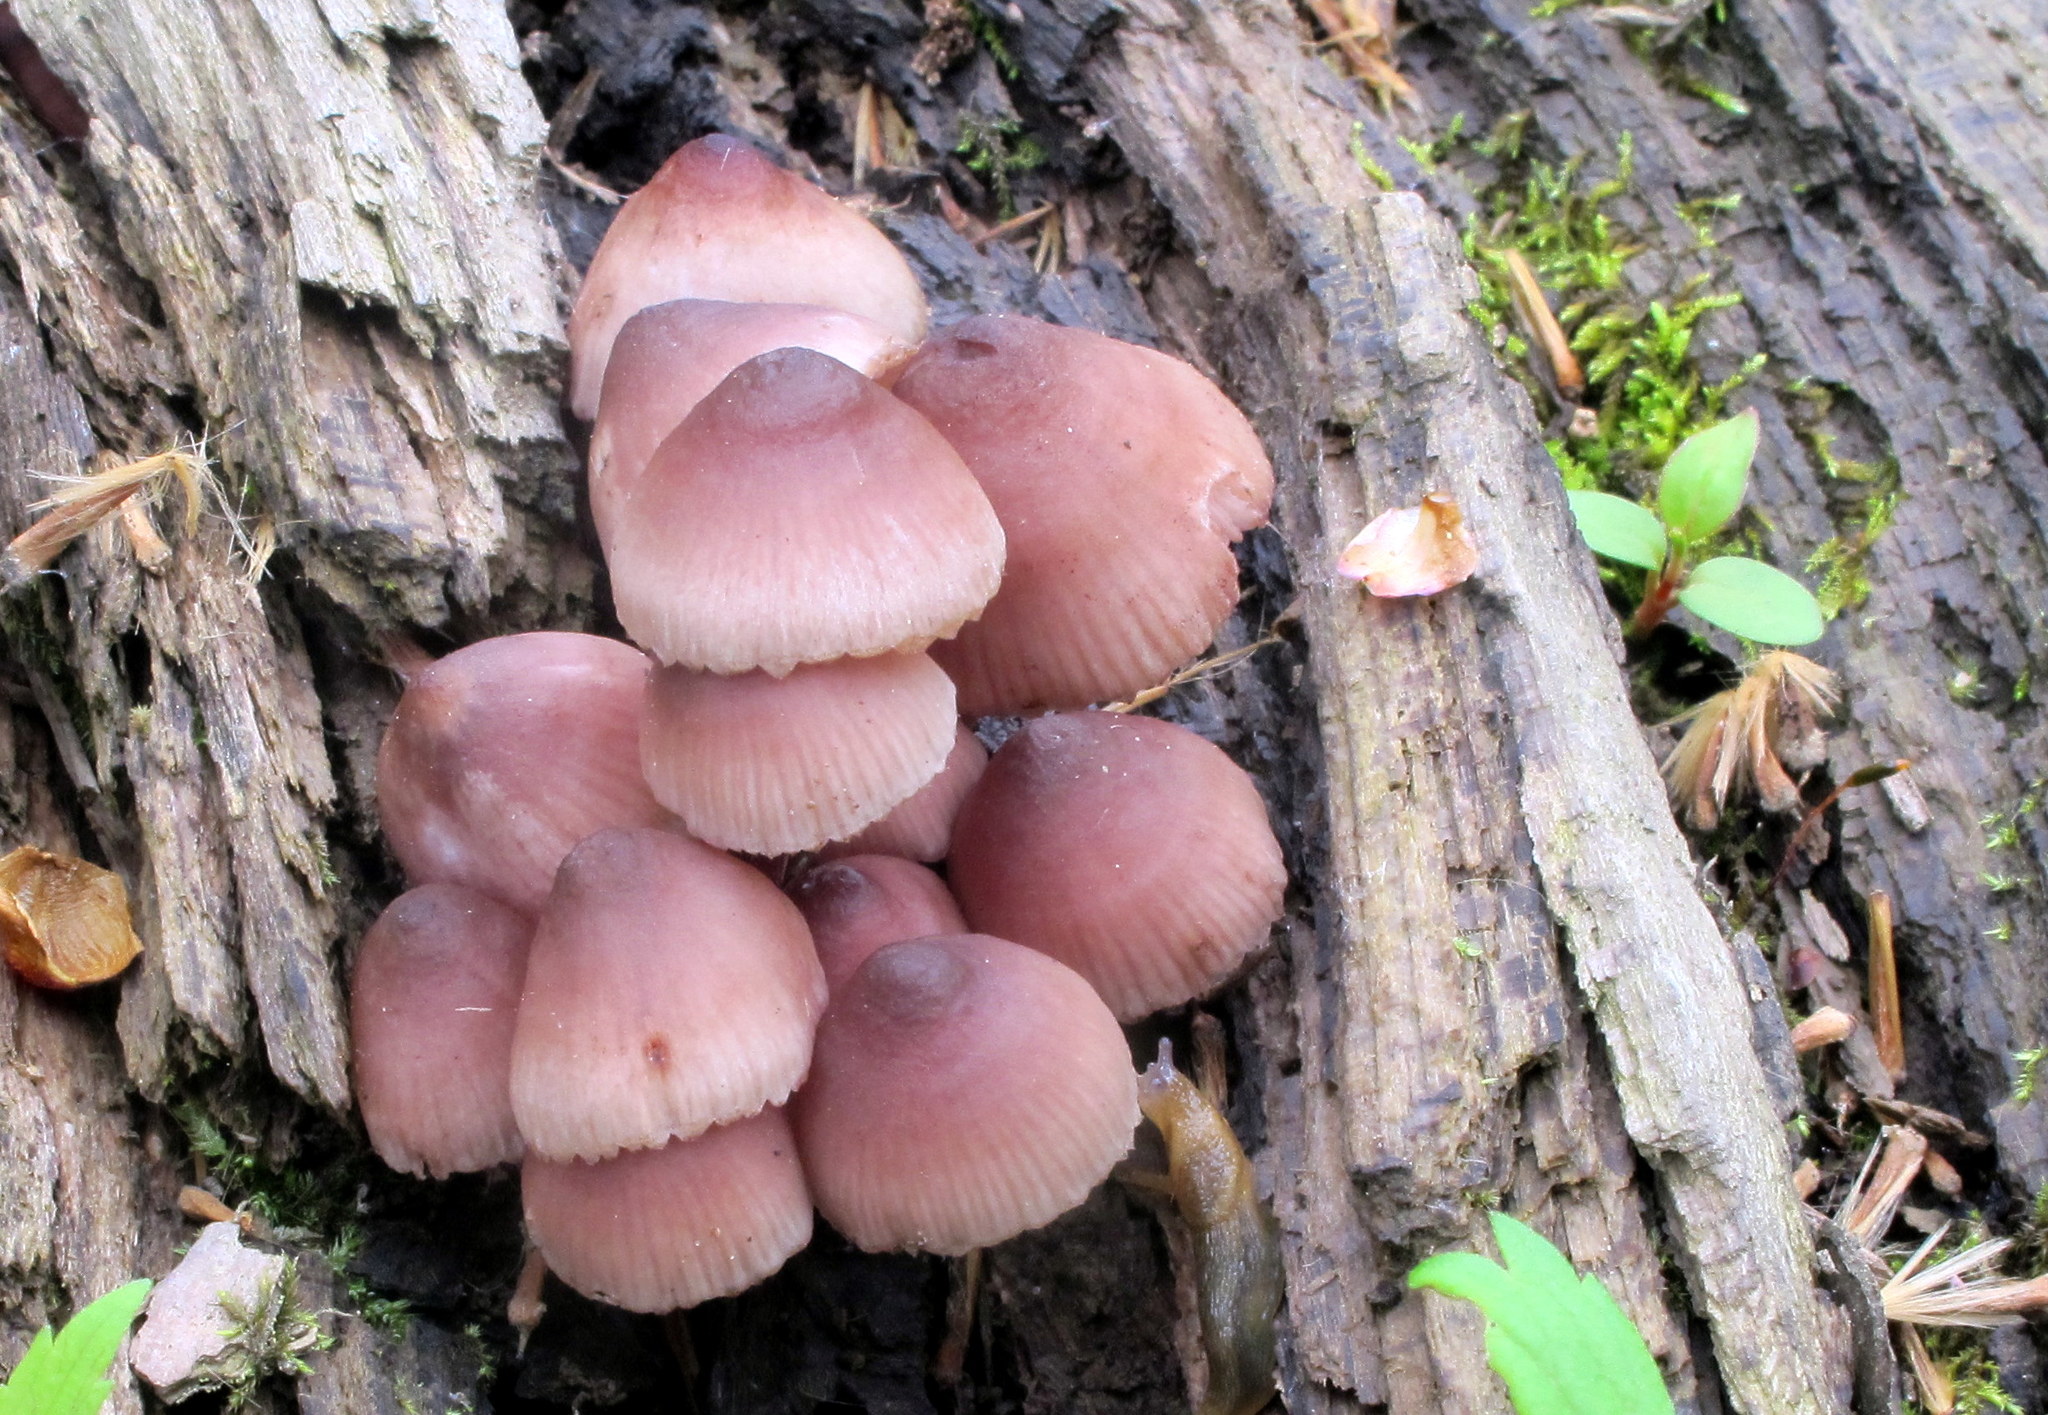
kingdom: Fungi
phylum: Basidiomycota
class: Agaricomycetes
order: Agaricales
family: Mycenaceae
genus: Mycena
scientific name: Mycena haematopus
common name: Burgundydrop bonnet
